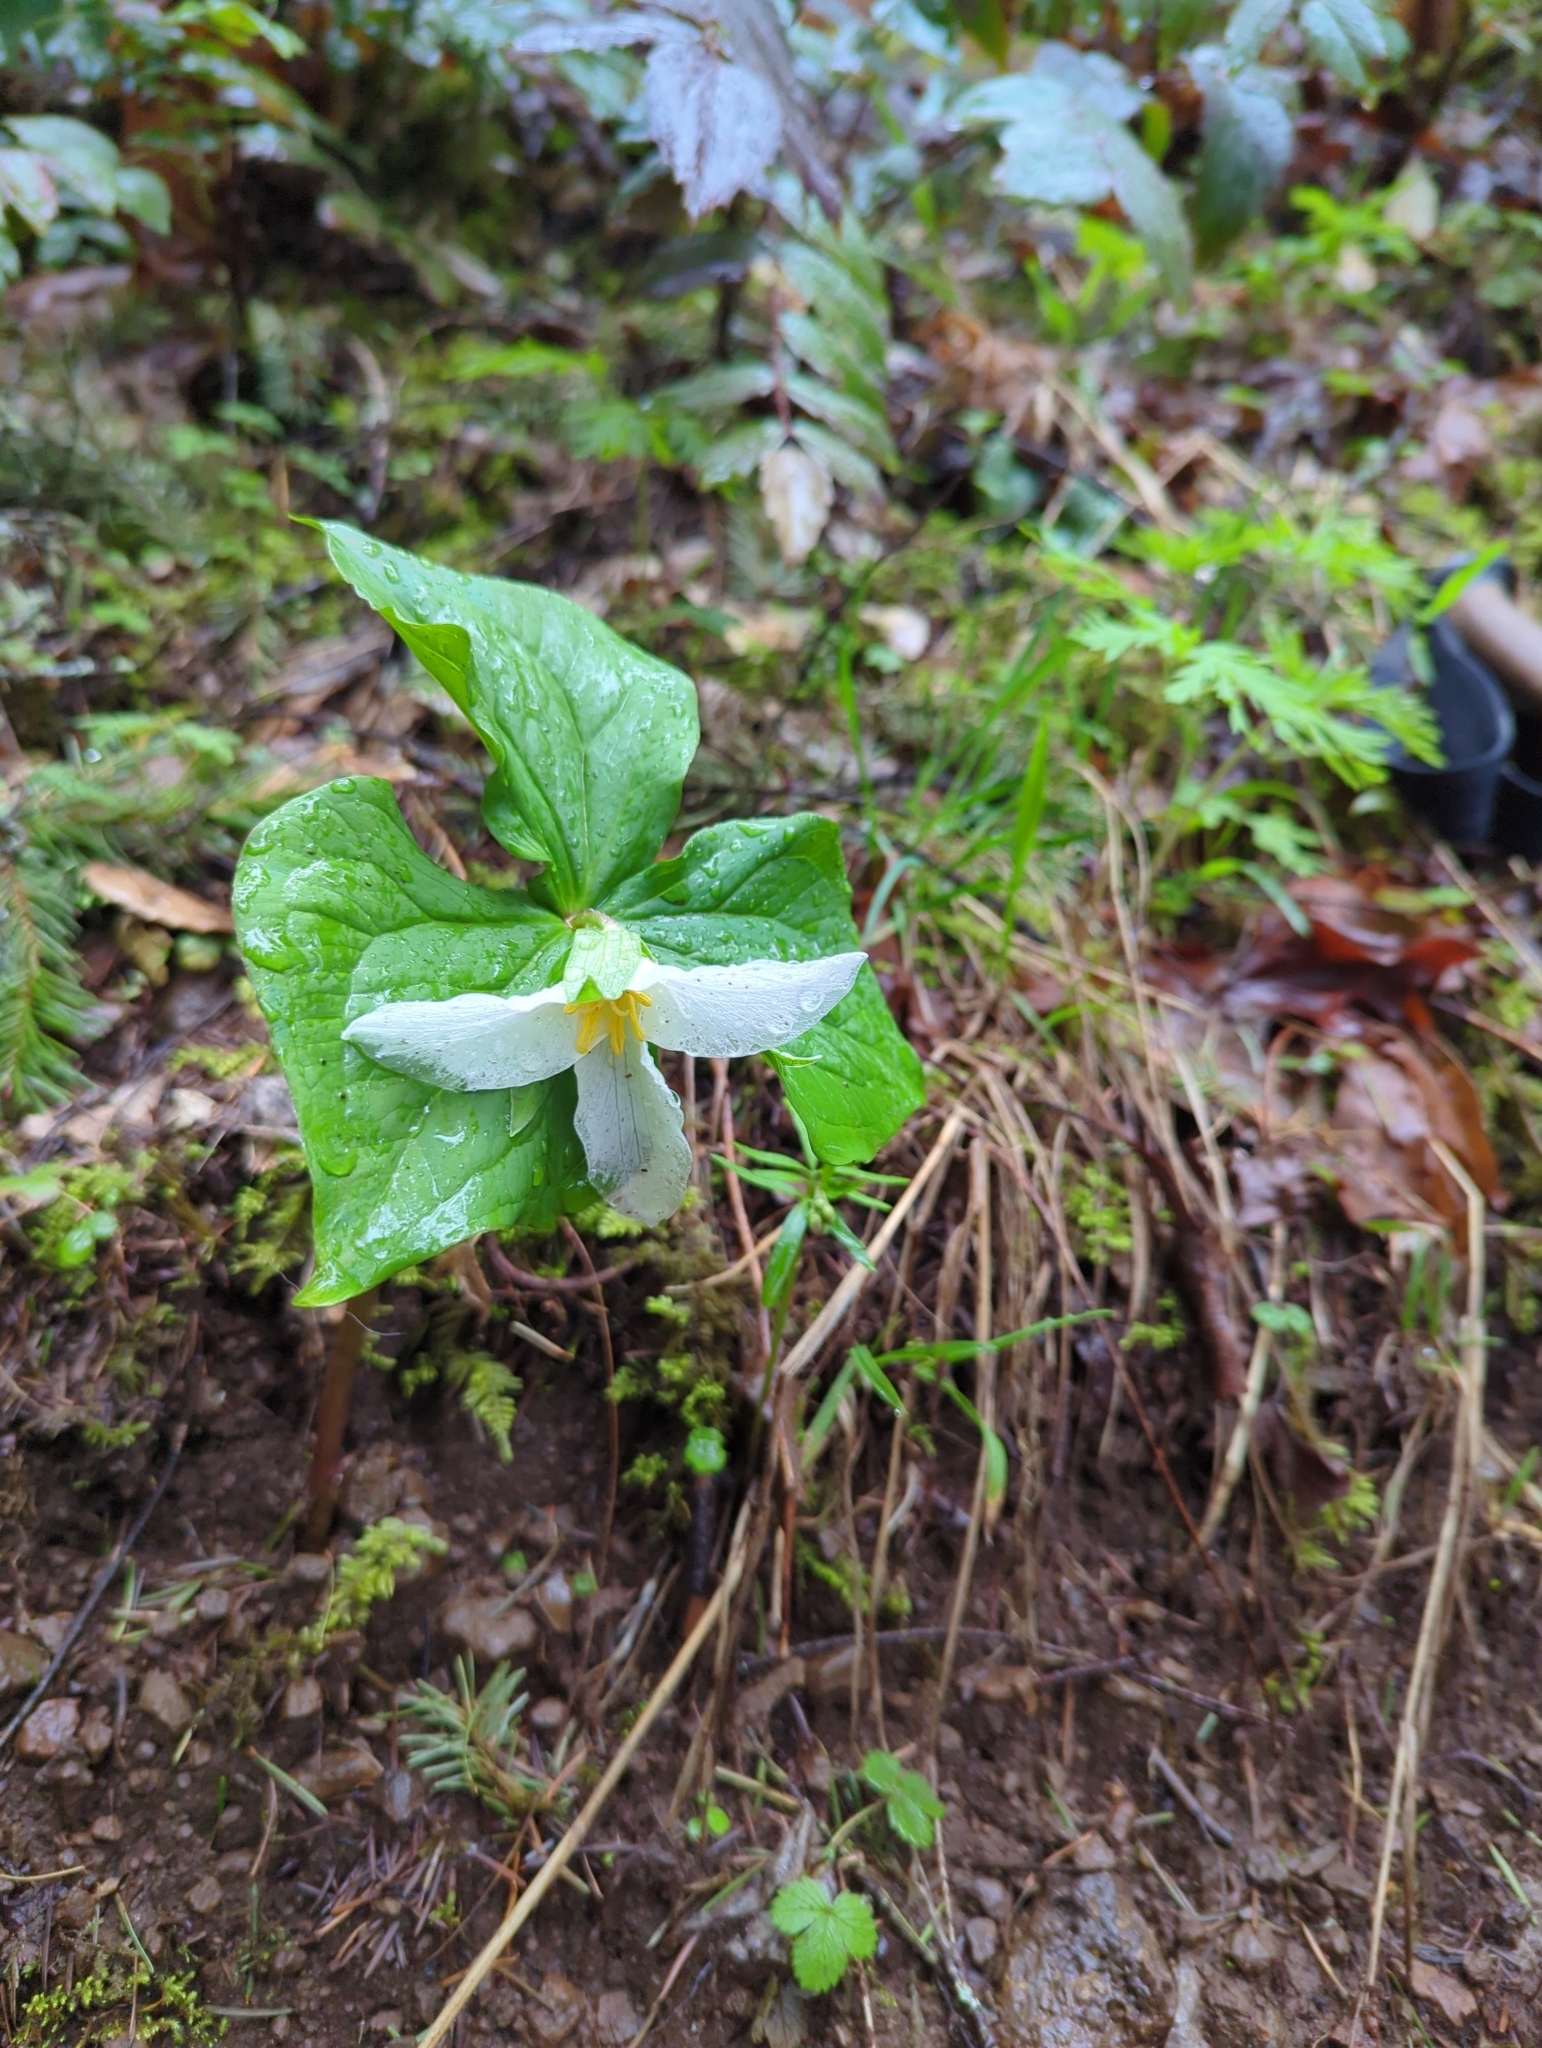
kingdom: Plantae
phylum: Tracheophyta
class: Liliopsida
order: Liliales
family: Melanthiaceae
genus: Trillium
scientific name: Trillium ovatum
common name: Pacific trillium
